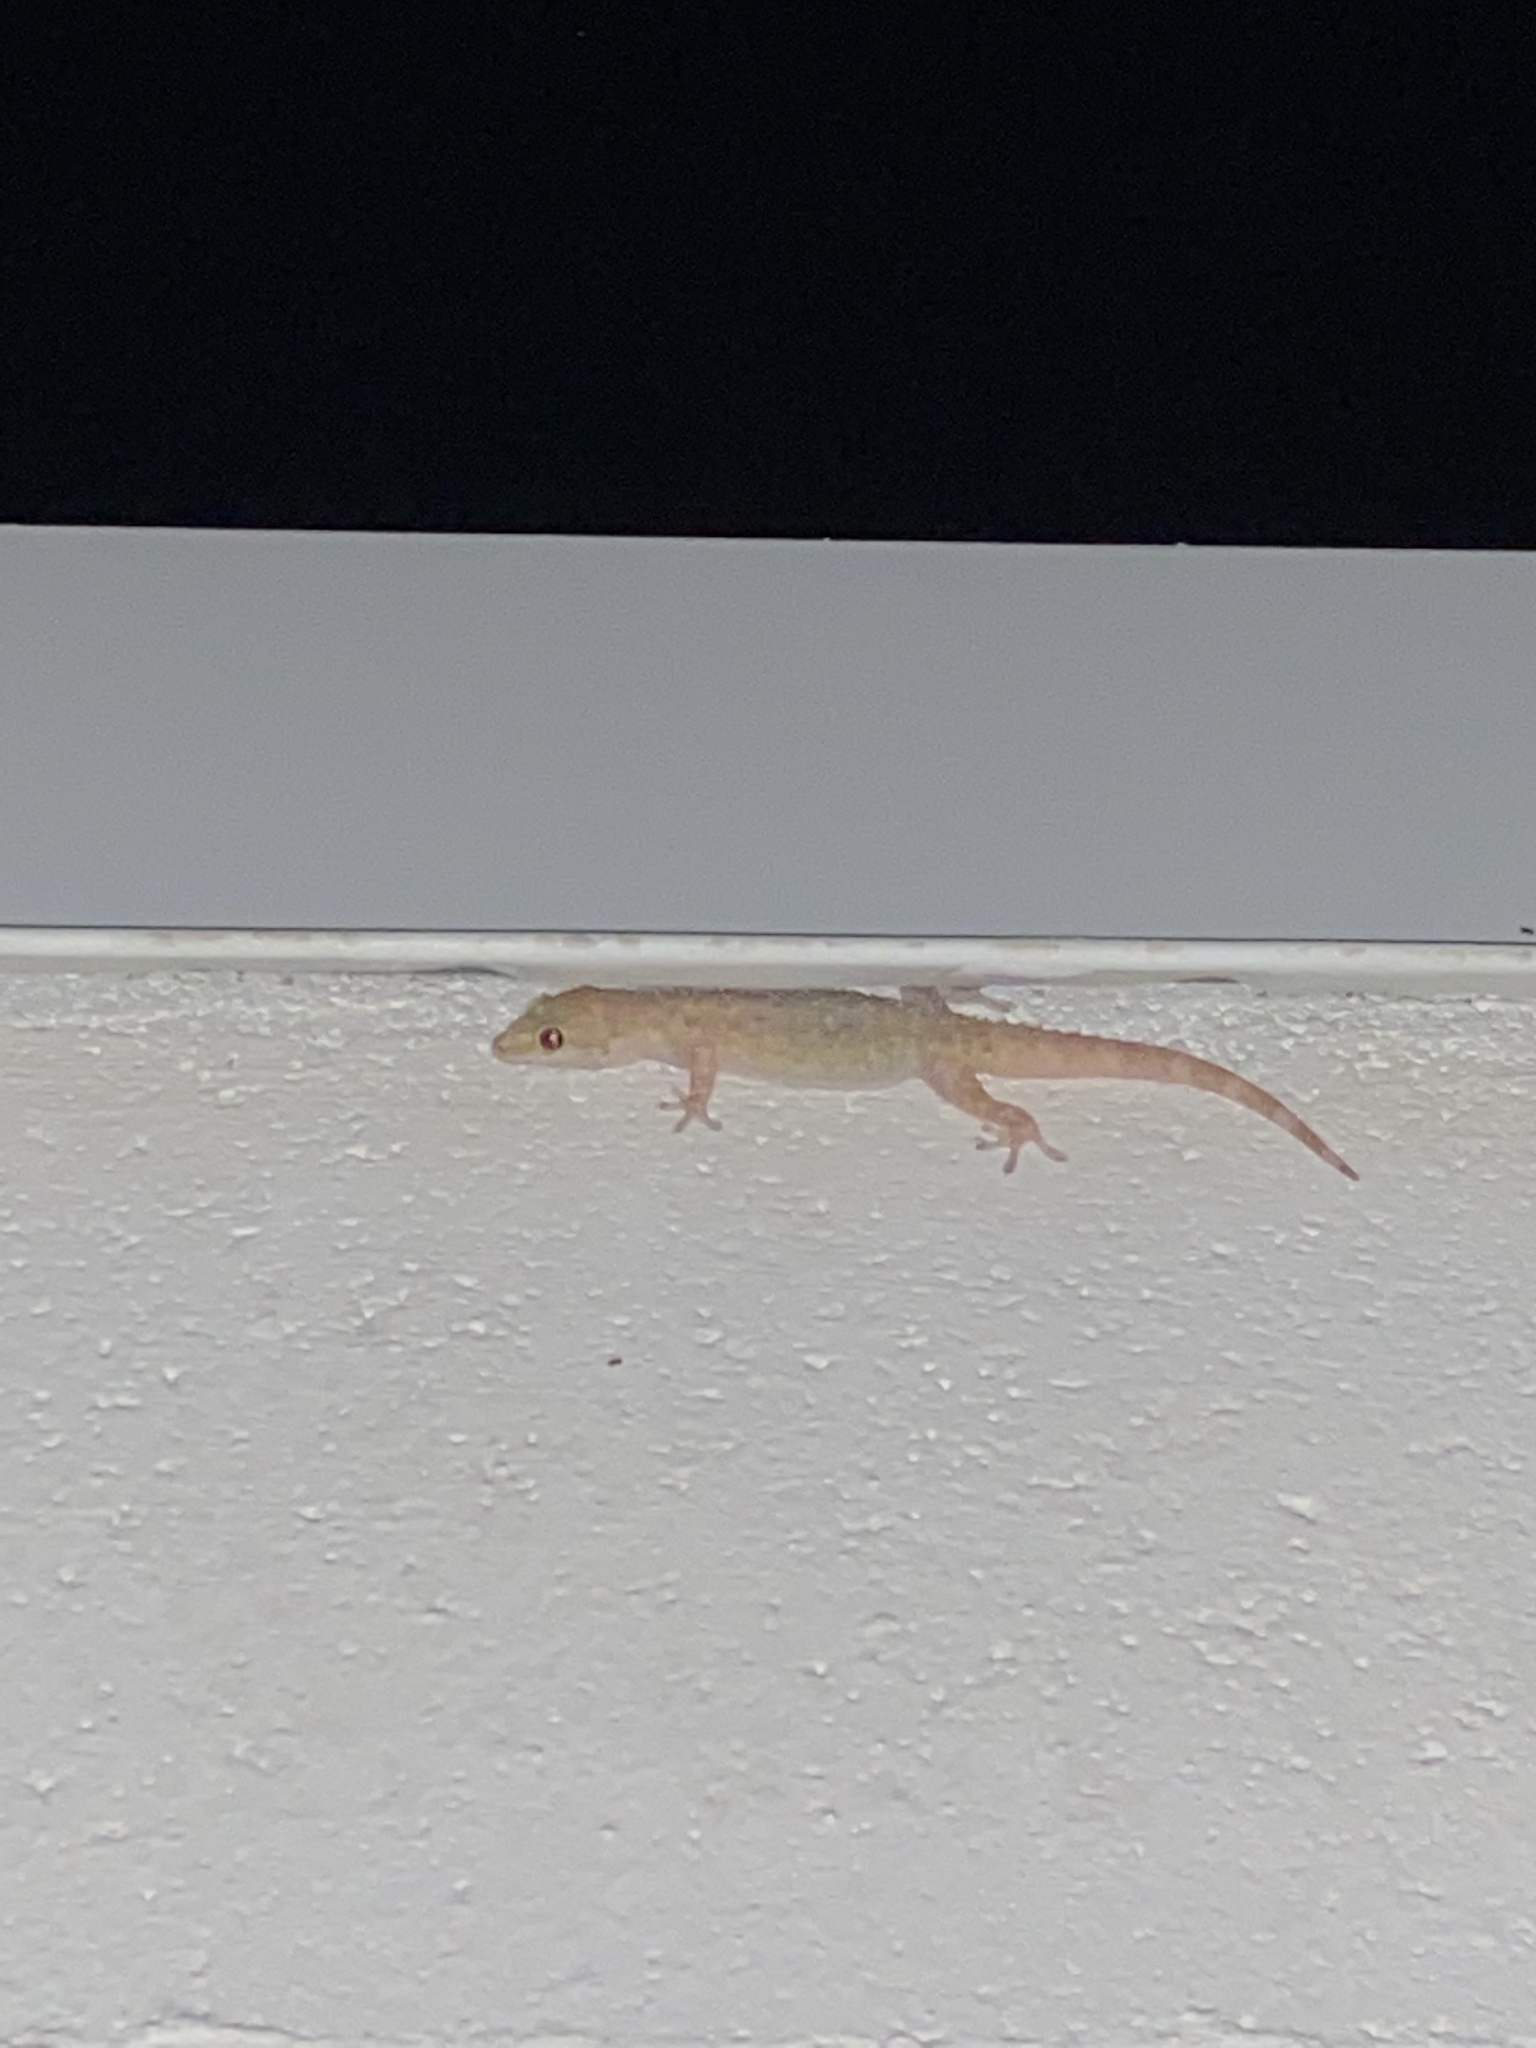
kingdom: Animalia
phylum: Chordata
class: Squamata
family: Gekkonidae
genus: Hemidactylus
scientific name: Hemidactylus turcicus
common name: Turkish gecko
